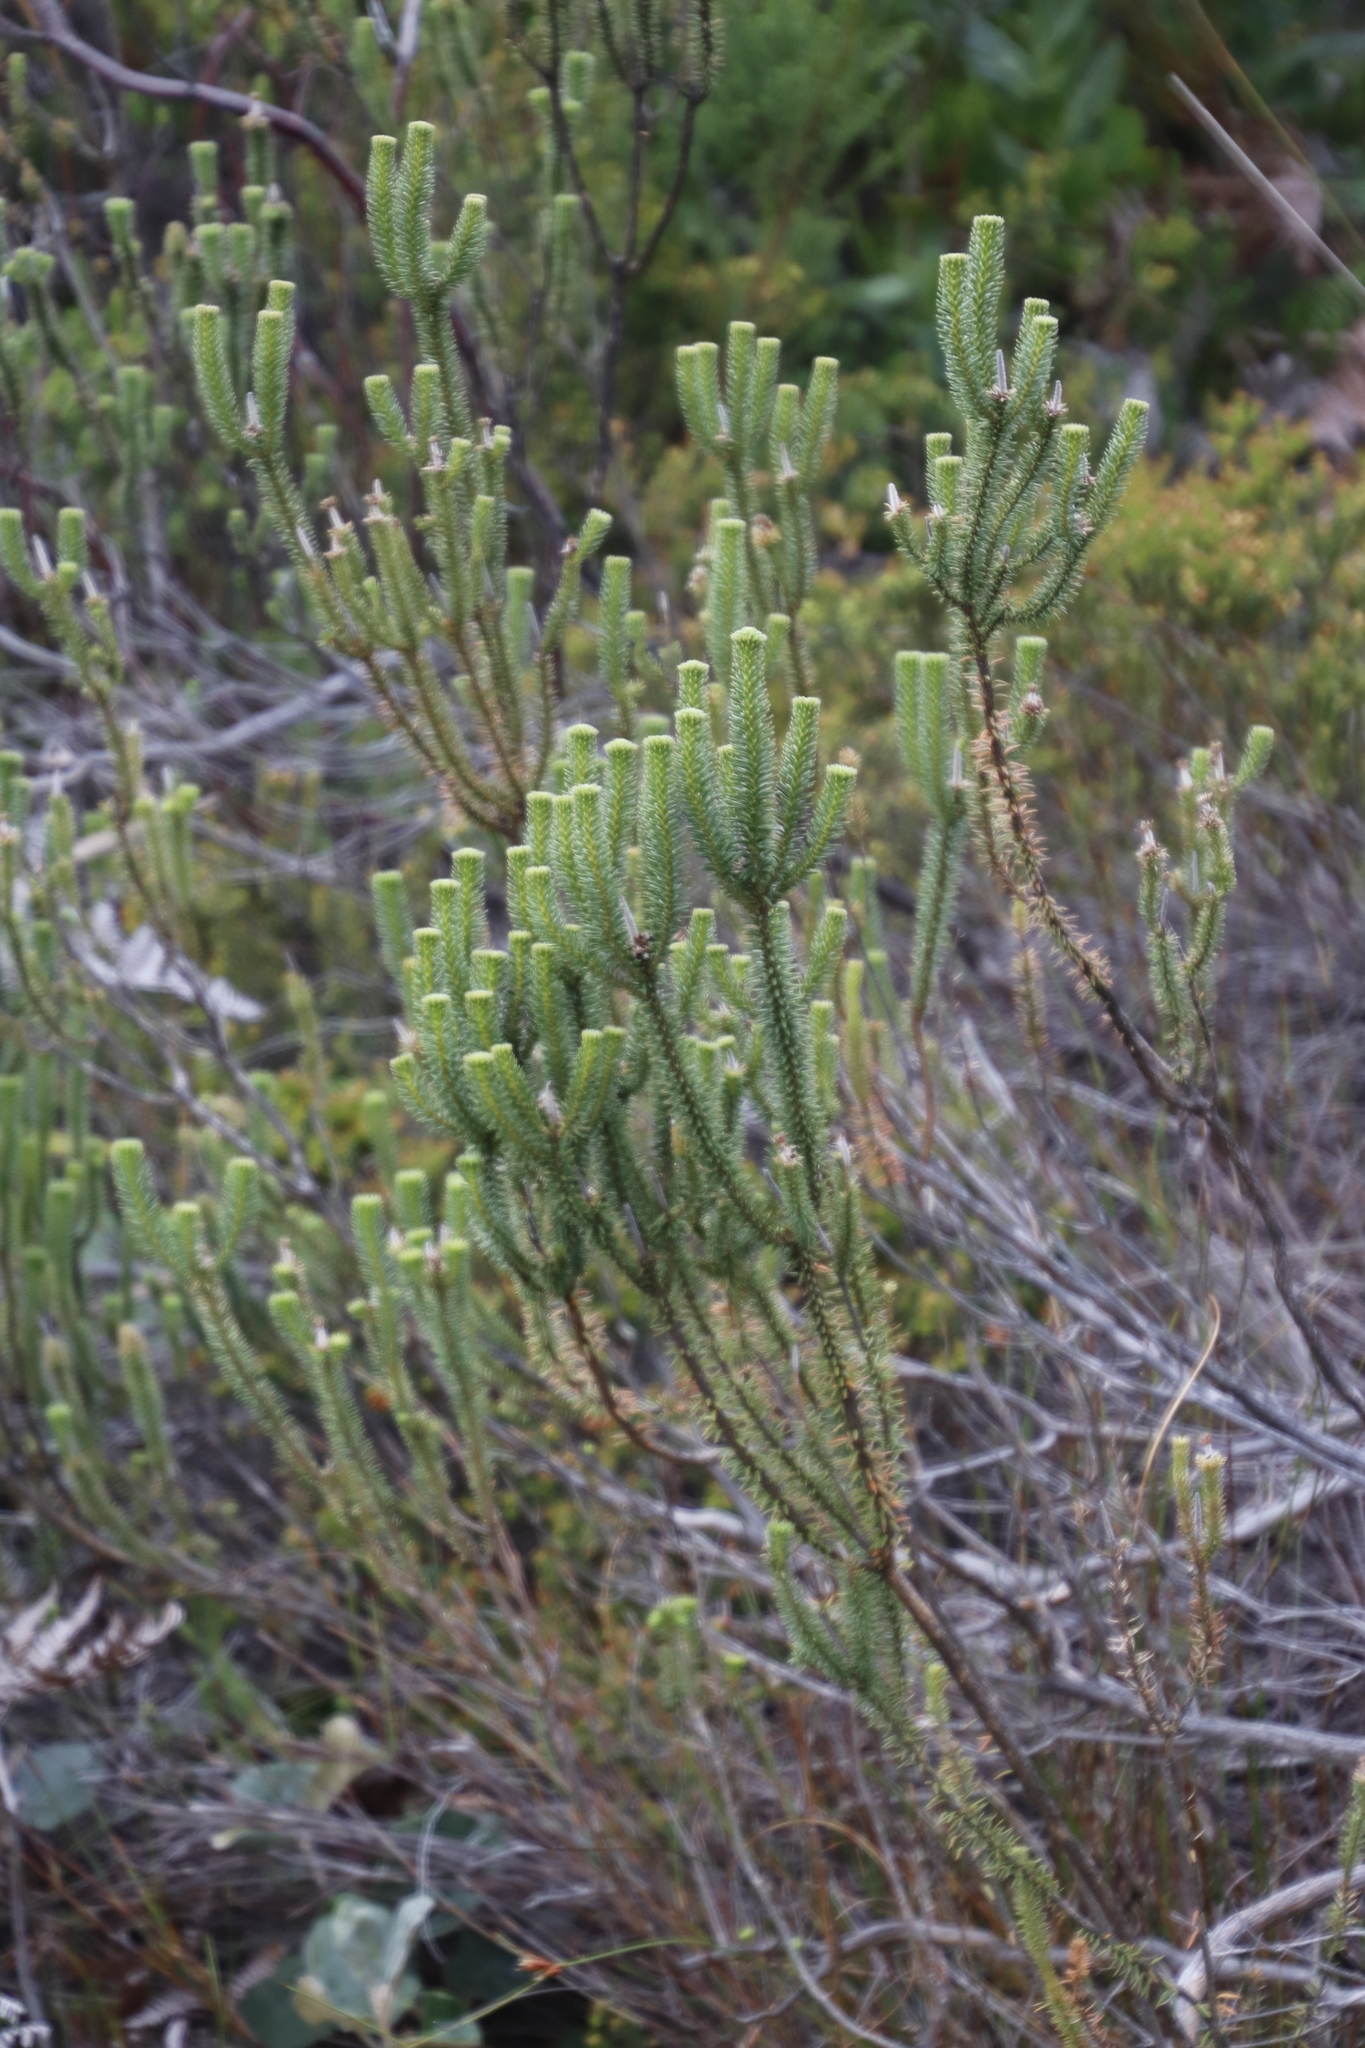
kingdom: Plantae
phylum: Tracheophyta
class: Magnoliopsida
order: Lamiales
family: Stilbaceae
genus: Stilbe
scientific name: Stilbe vestita
